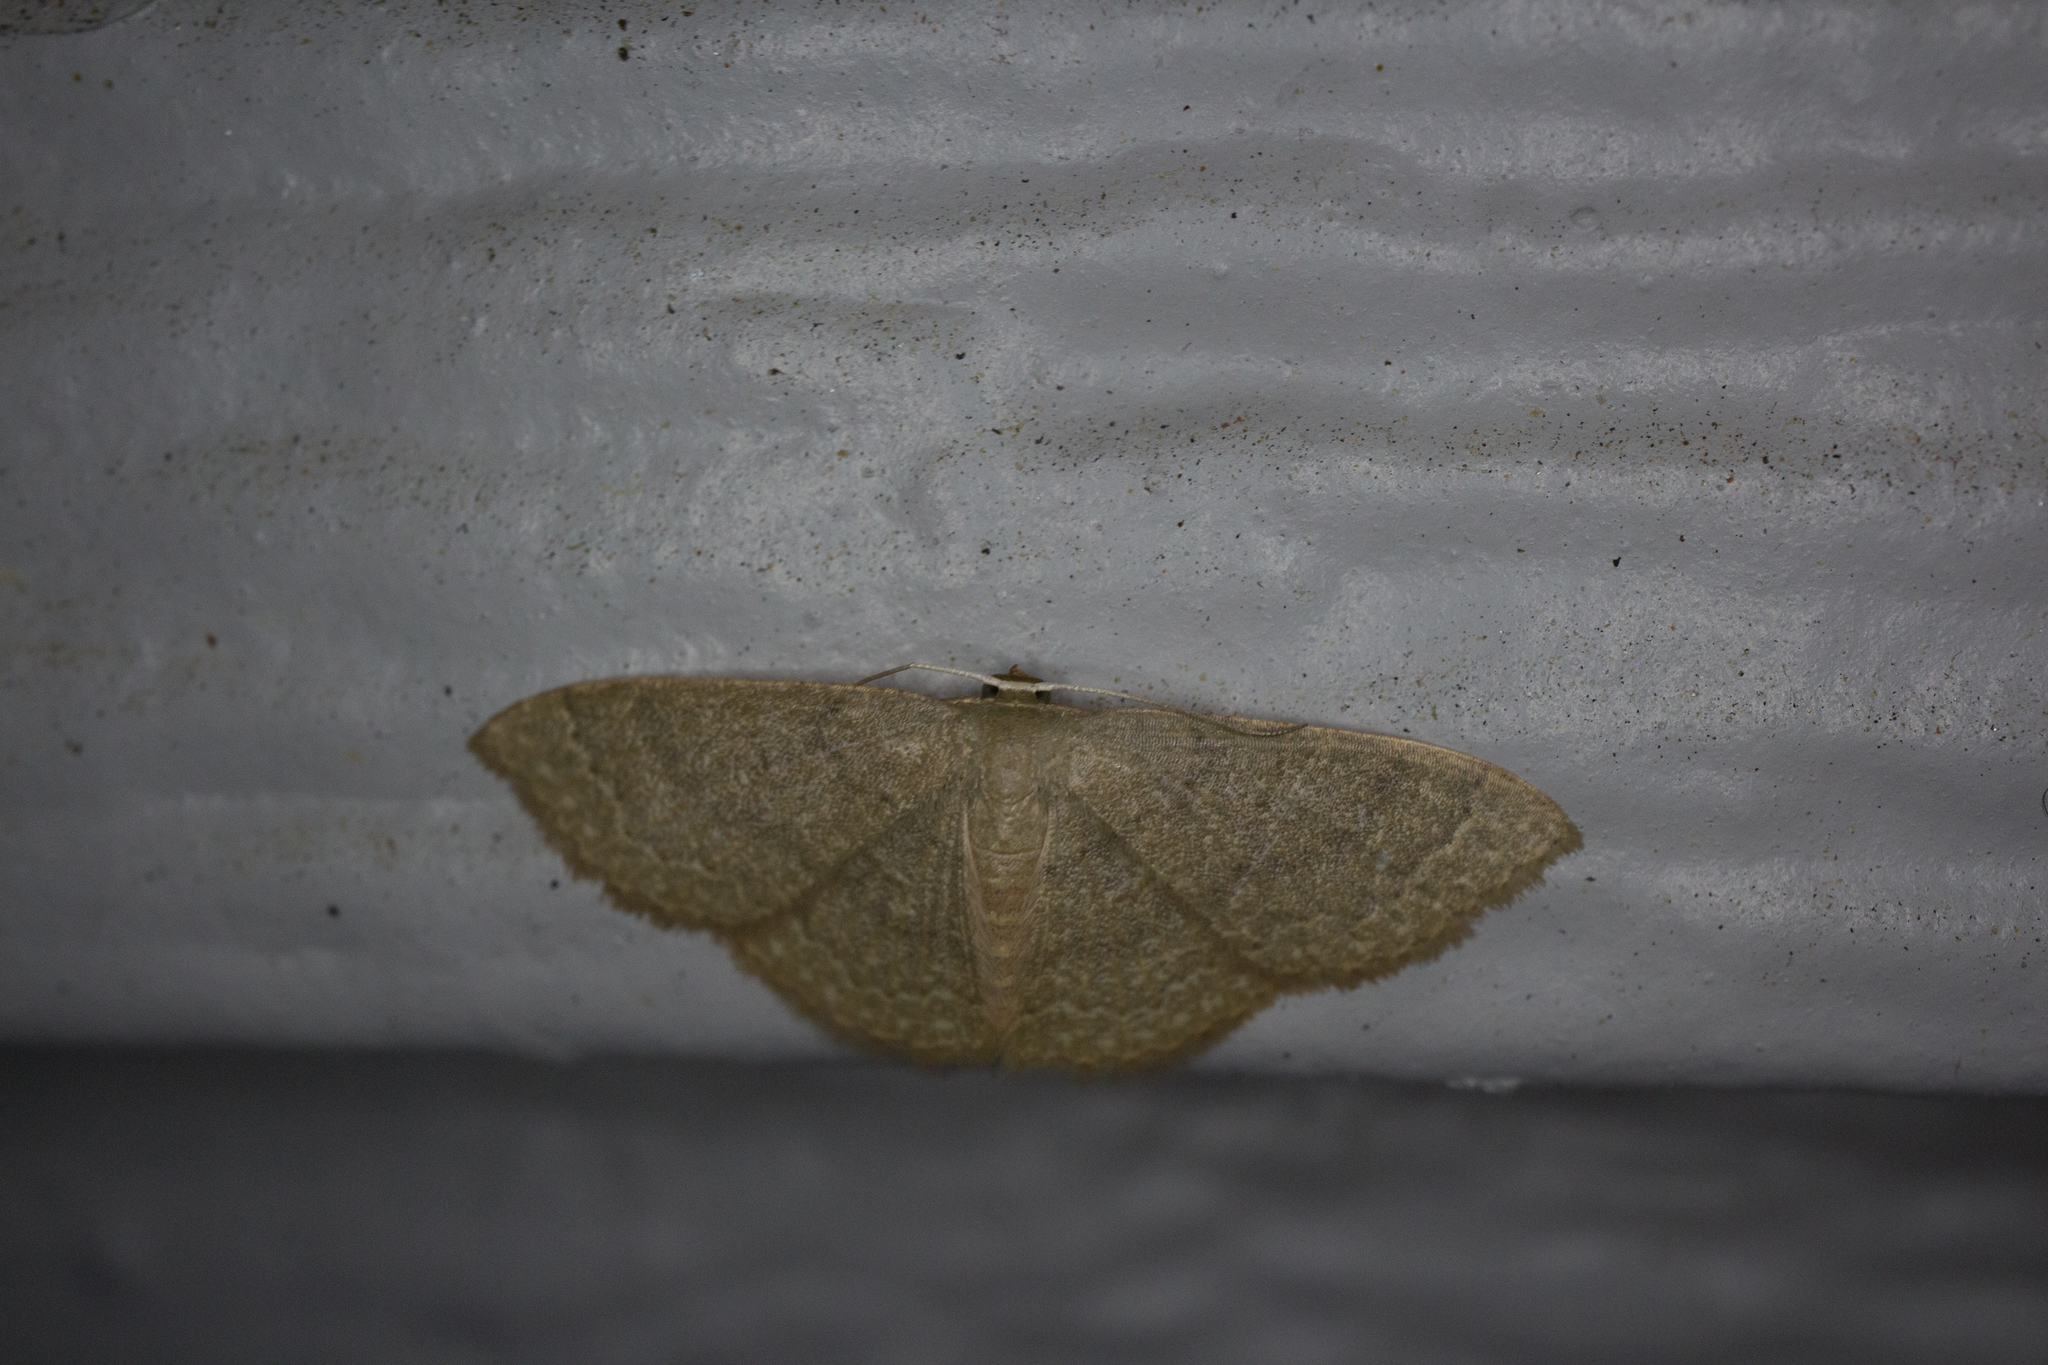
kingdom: Animalia
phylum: Arthropoda
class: Insecta
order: Lepidoptera
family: Geometridae
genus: Pleuroprucha
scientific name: Pleuroprucha insulsaria
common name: Common tan wave
